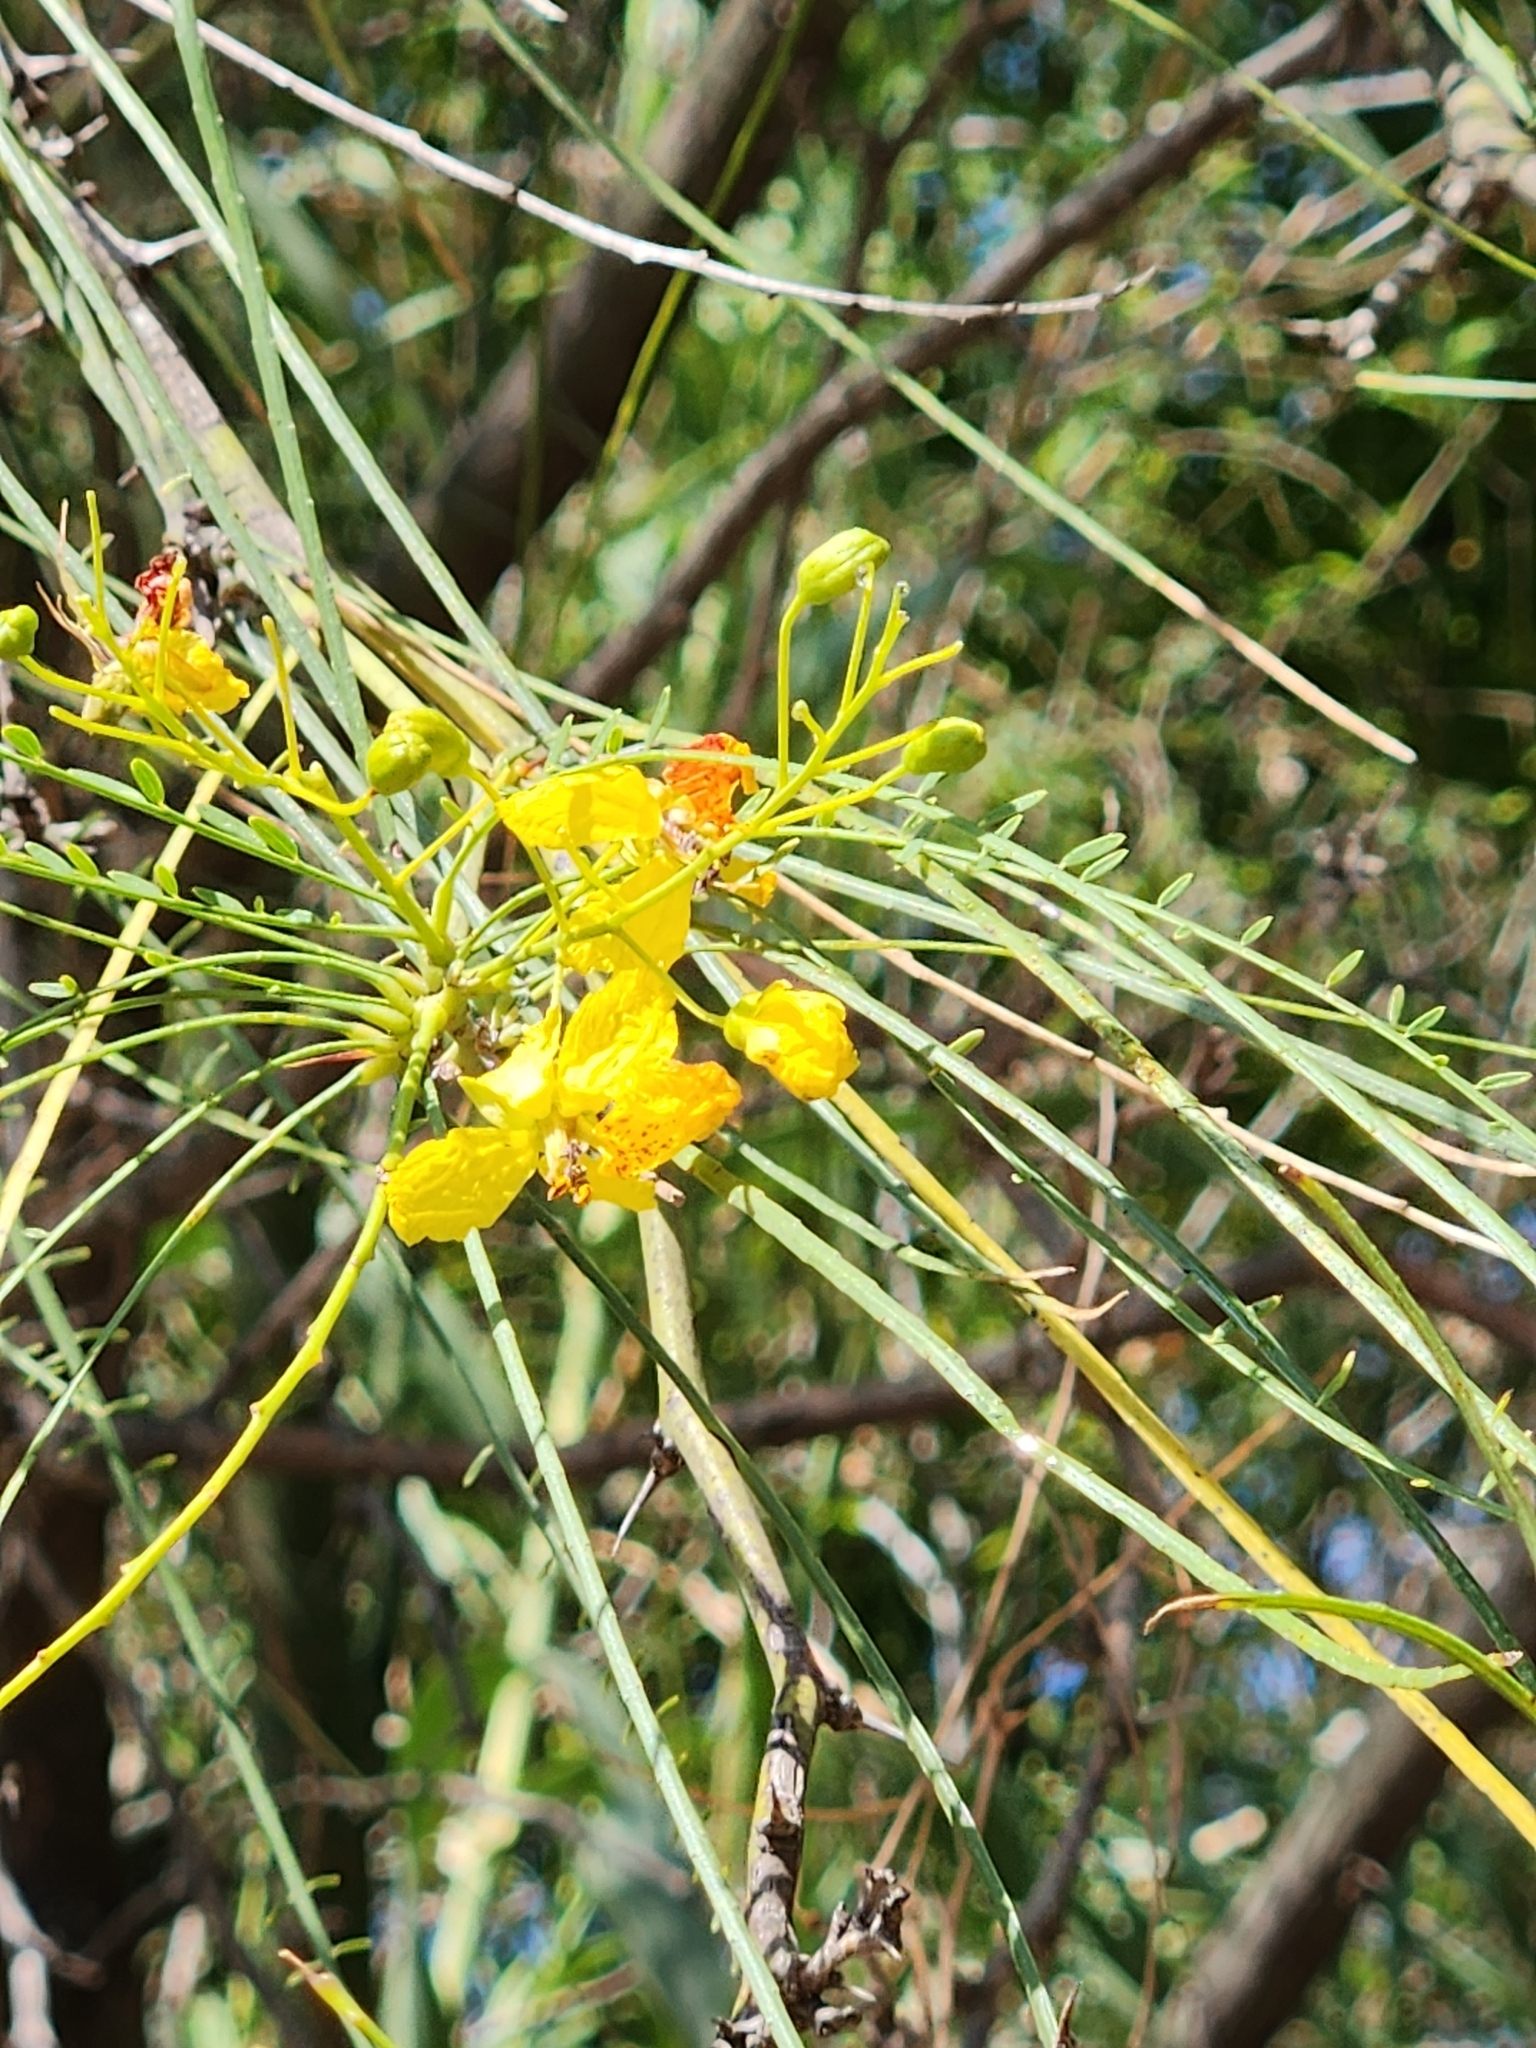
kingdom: Plantae
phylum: Tracheophyta
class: Magnoliopsida
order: Fabales
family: Fabaceae
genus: Parkinsonia
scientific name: Parkinsonia aculeata
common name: Jerusalem thorn
